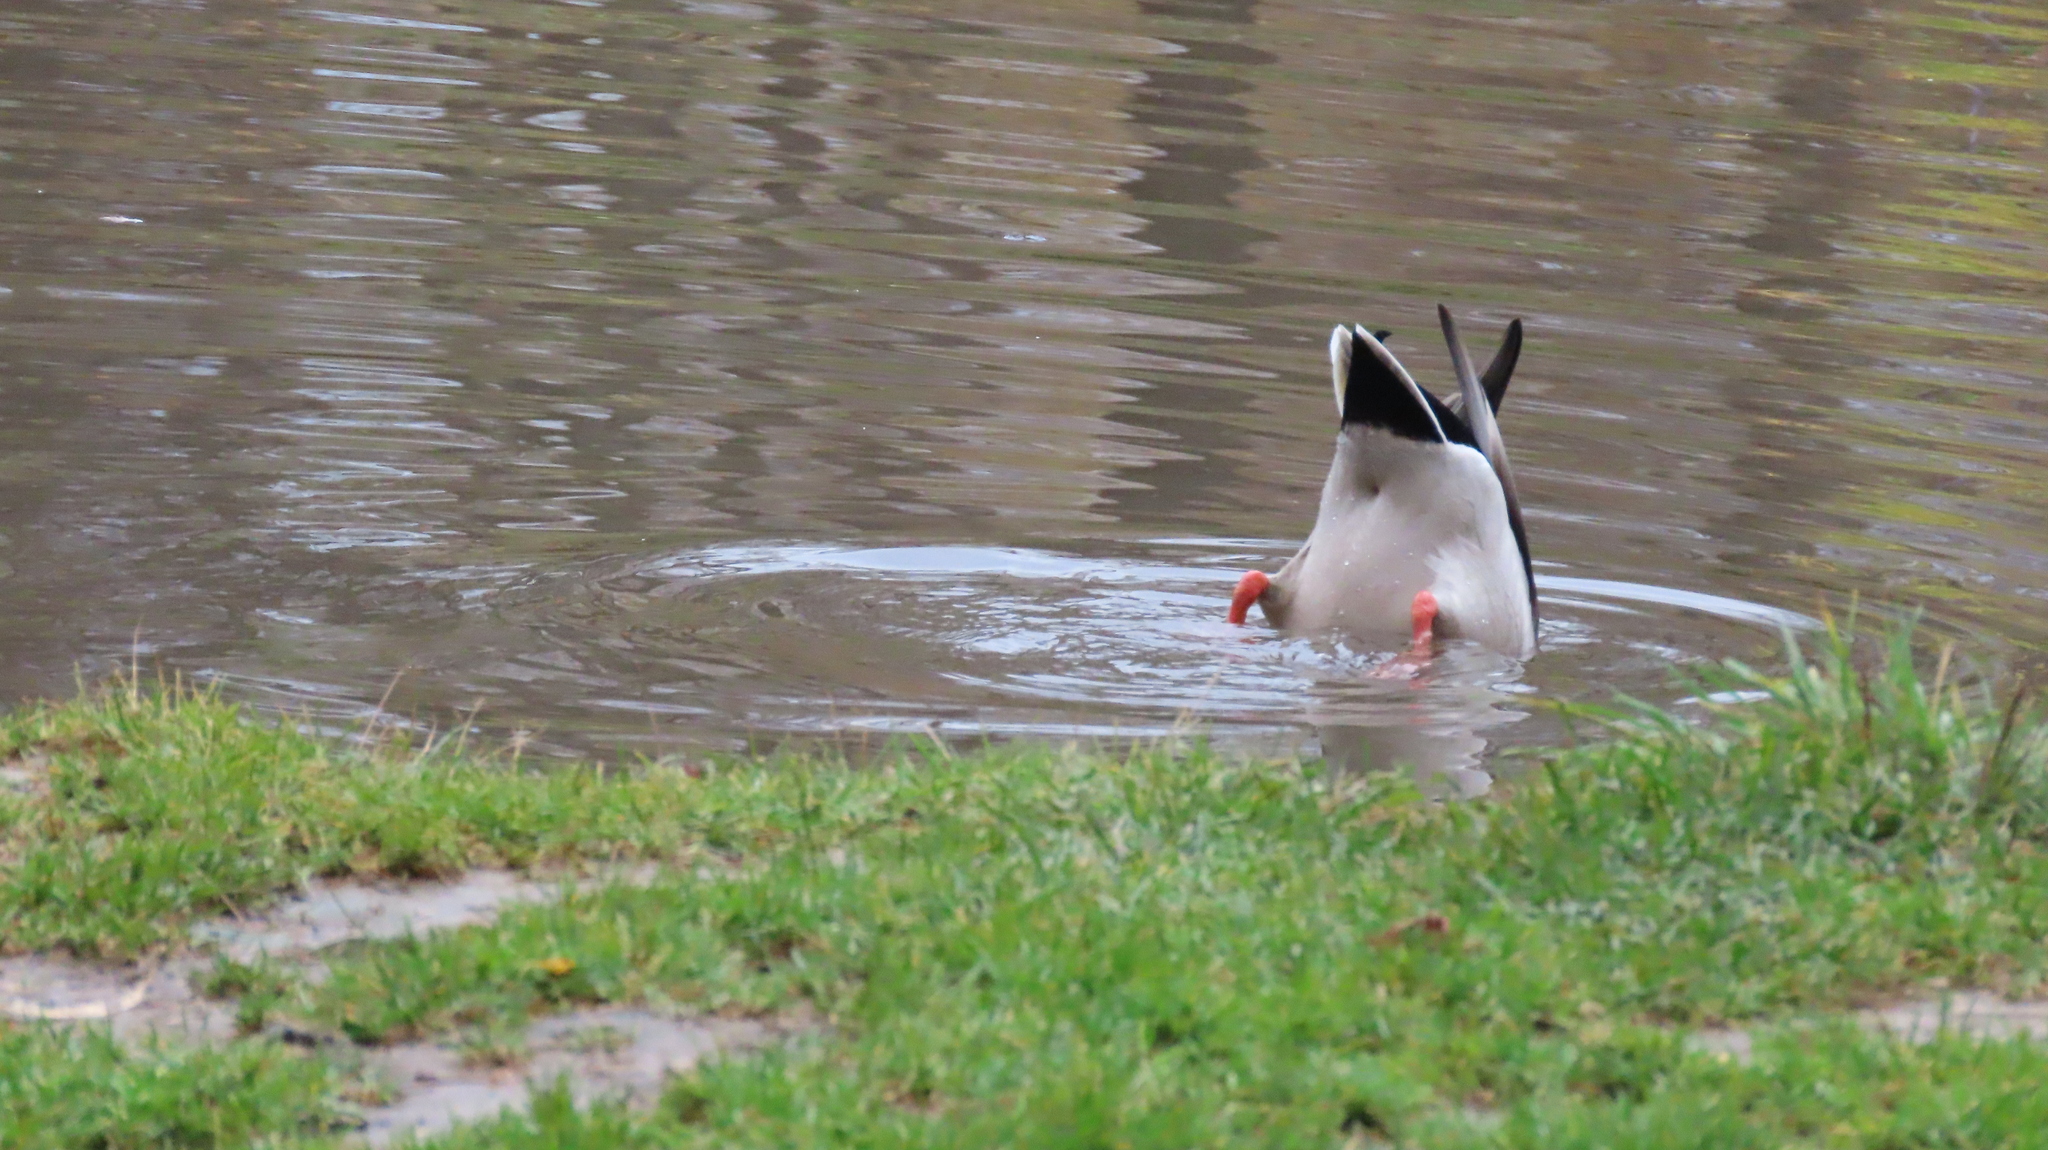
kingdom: Animalia
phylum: Chordata
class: Aves
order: Anseriformes
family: Anatidae
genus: Anas
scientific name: Anas platyrhynchos
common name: Mallard
